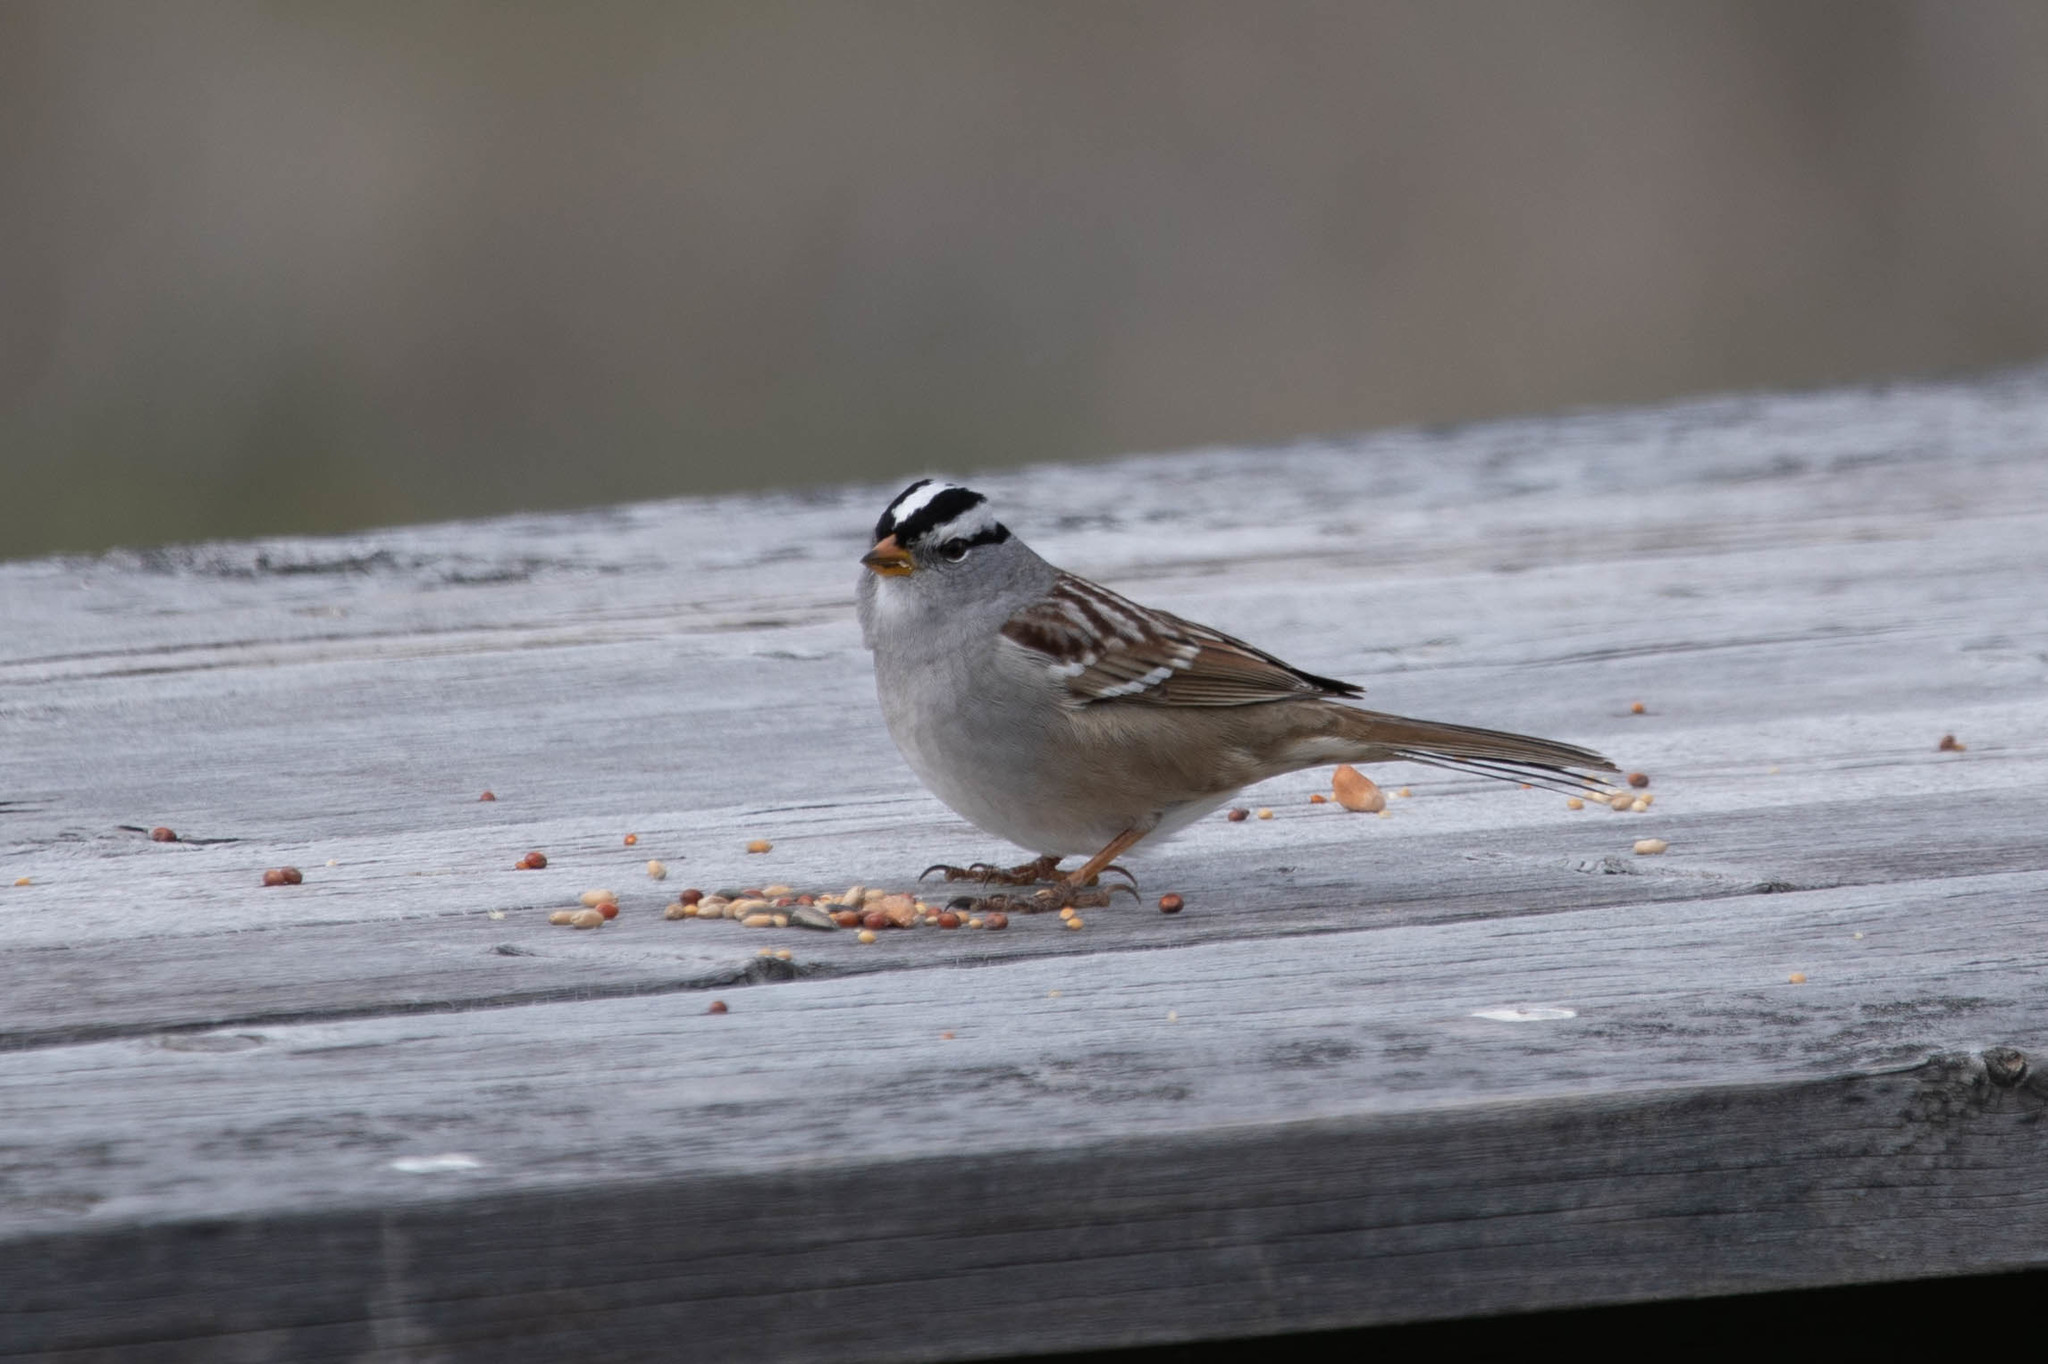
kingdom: Animalia
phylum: Chordata
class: Aves
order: Passeriformes
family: Passerellidae
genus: Zonotrichia
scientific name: Zonotrichia leucophrys
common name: White-crowned sparrow
